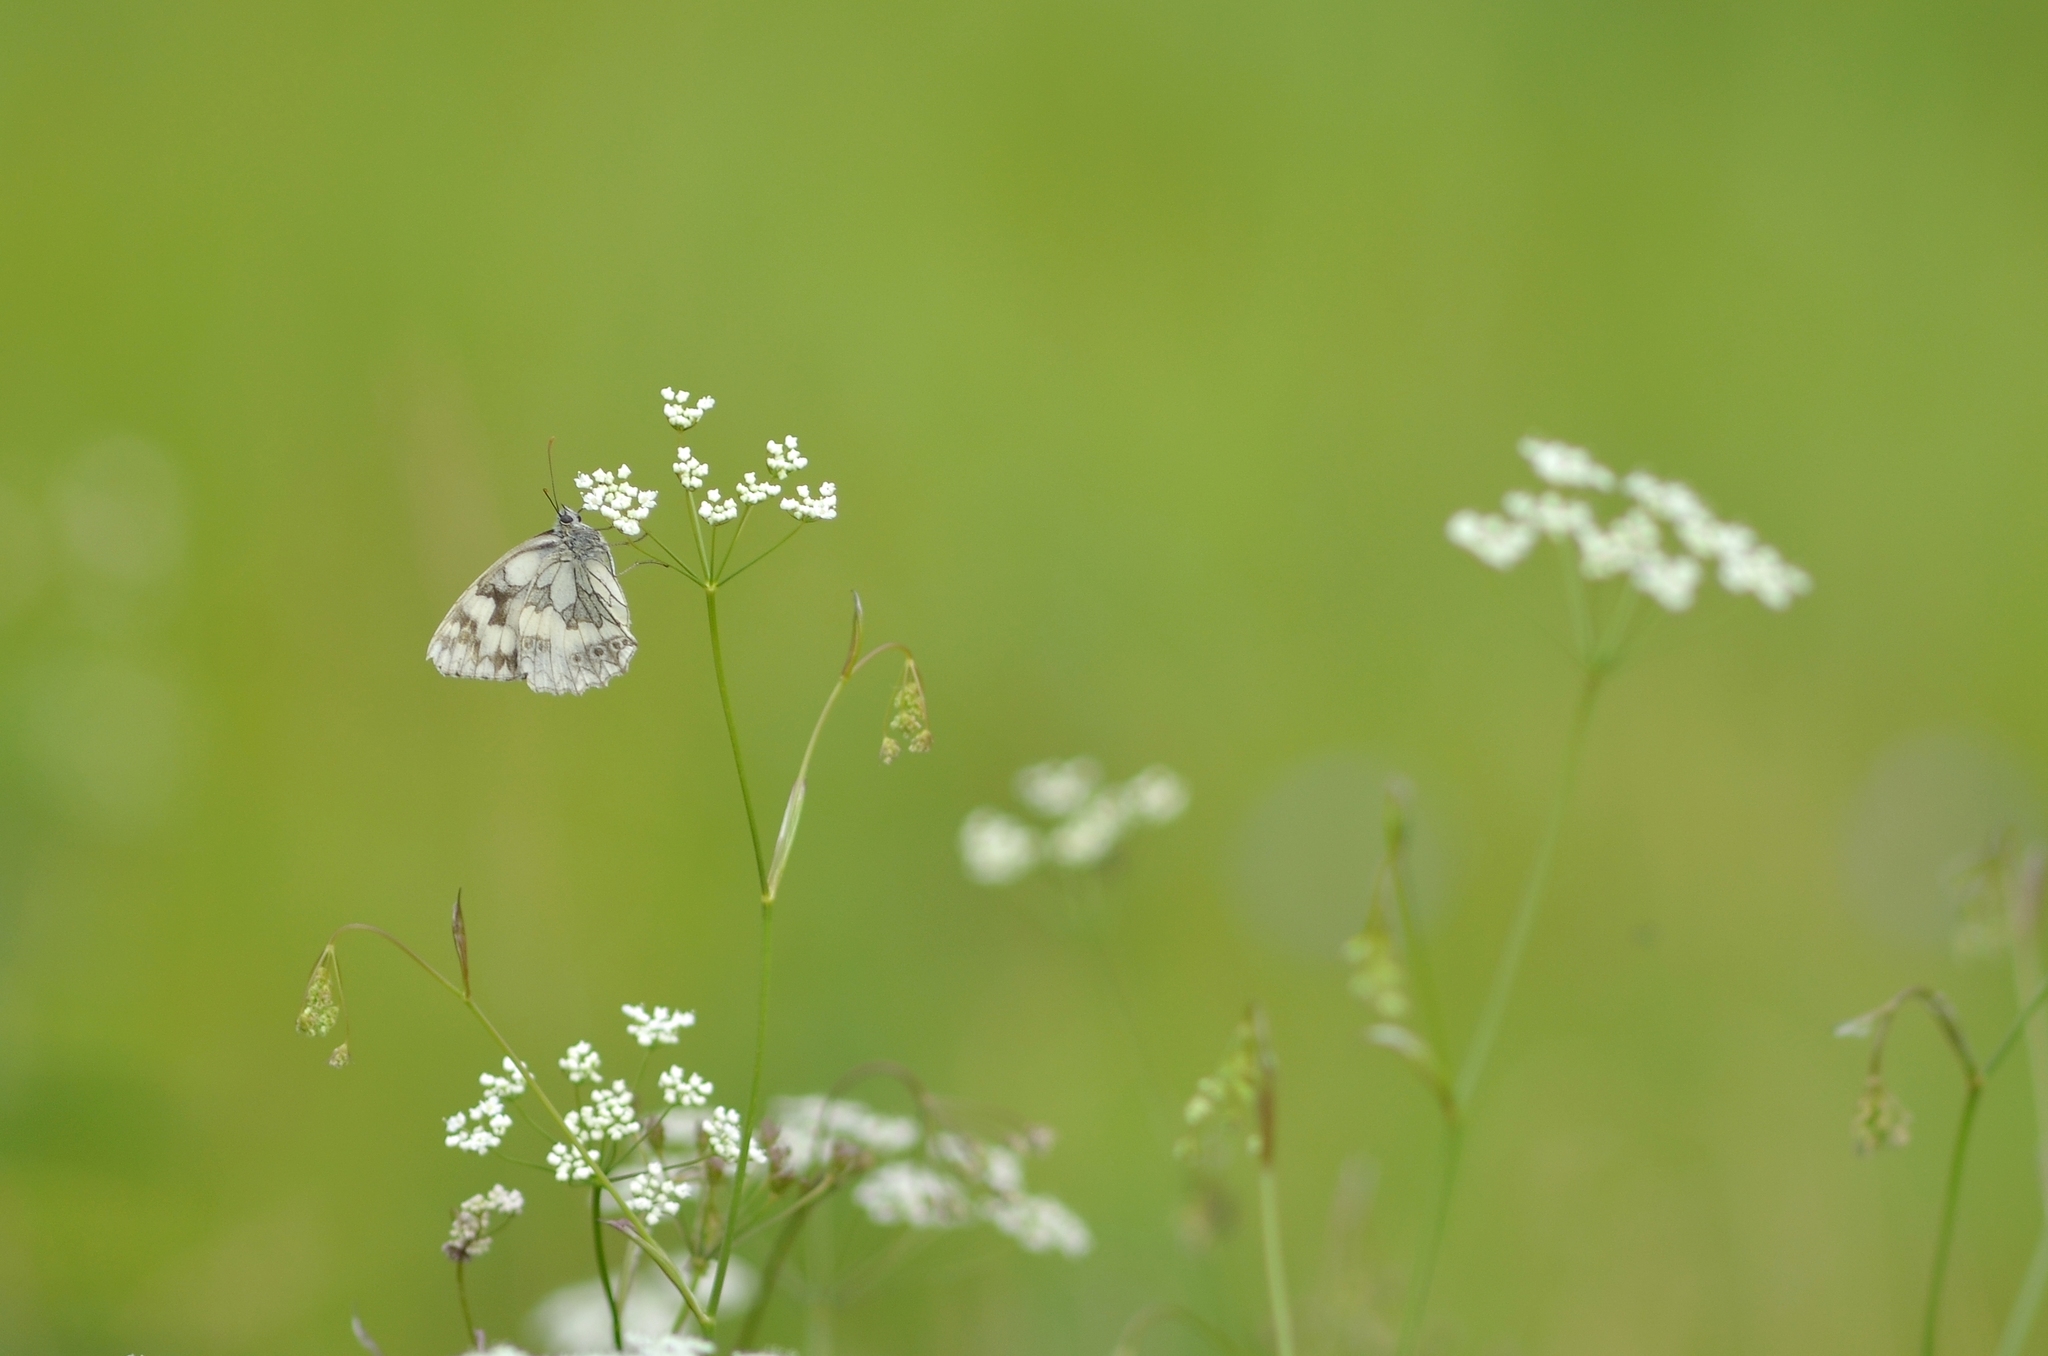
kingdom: Animalia
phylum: Arthropoda
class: Insecta
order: Lepidoptera
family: Nymphalidae
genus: Melanargia
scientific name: Melanargia galathea
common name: Marbled white
